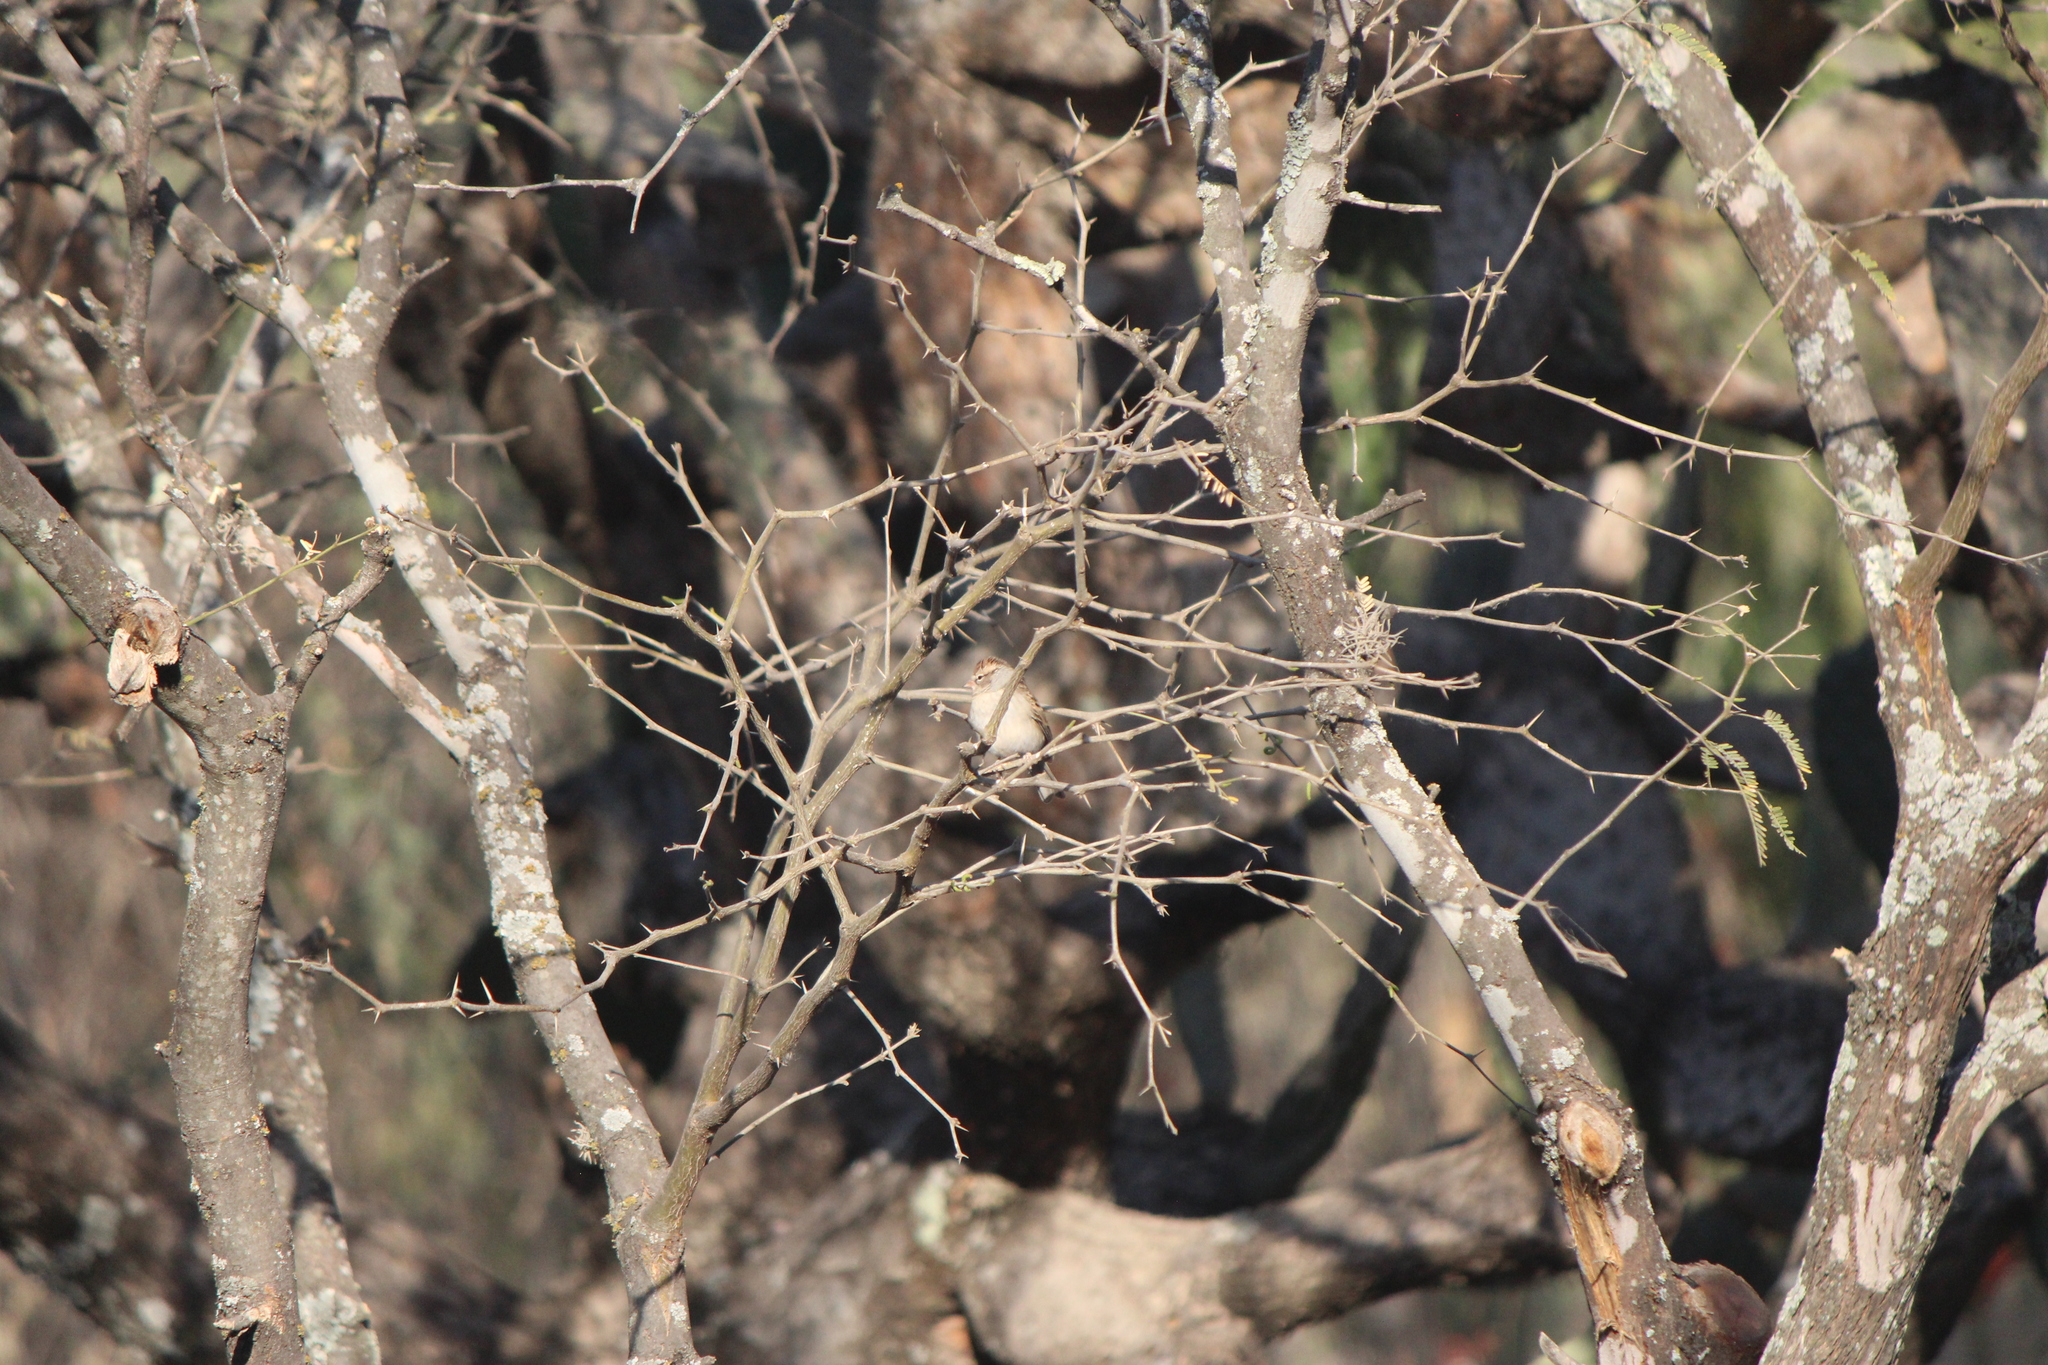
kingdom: Animalia
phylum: Chordata
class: Aves
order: Passeriformes
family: Passerellidae
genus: Spizella
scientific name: Spizella passerina
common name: Chipping sparrow
